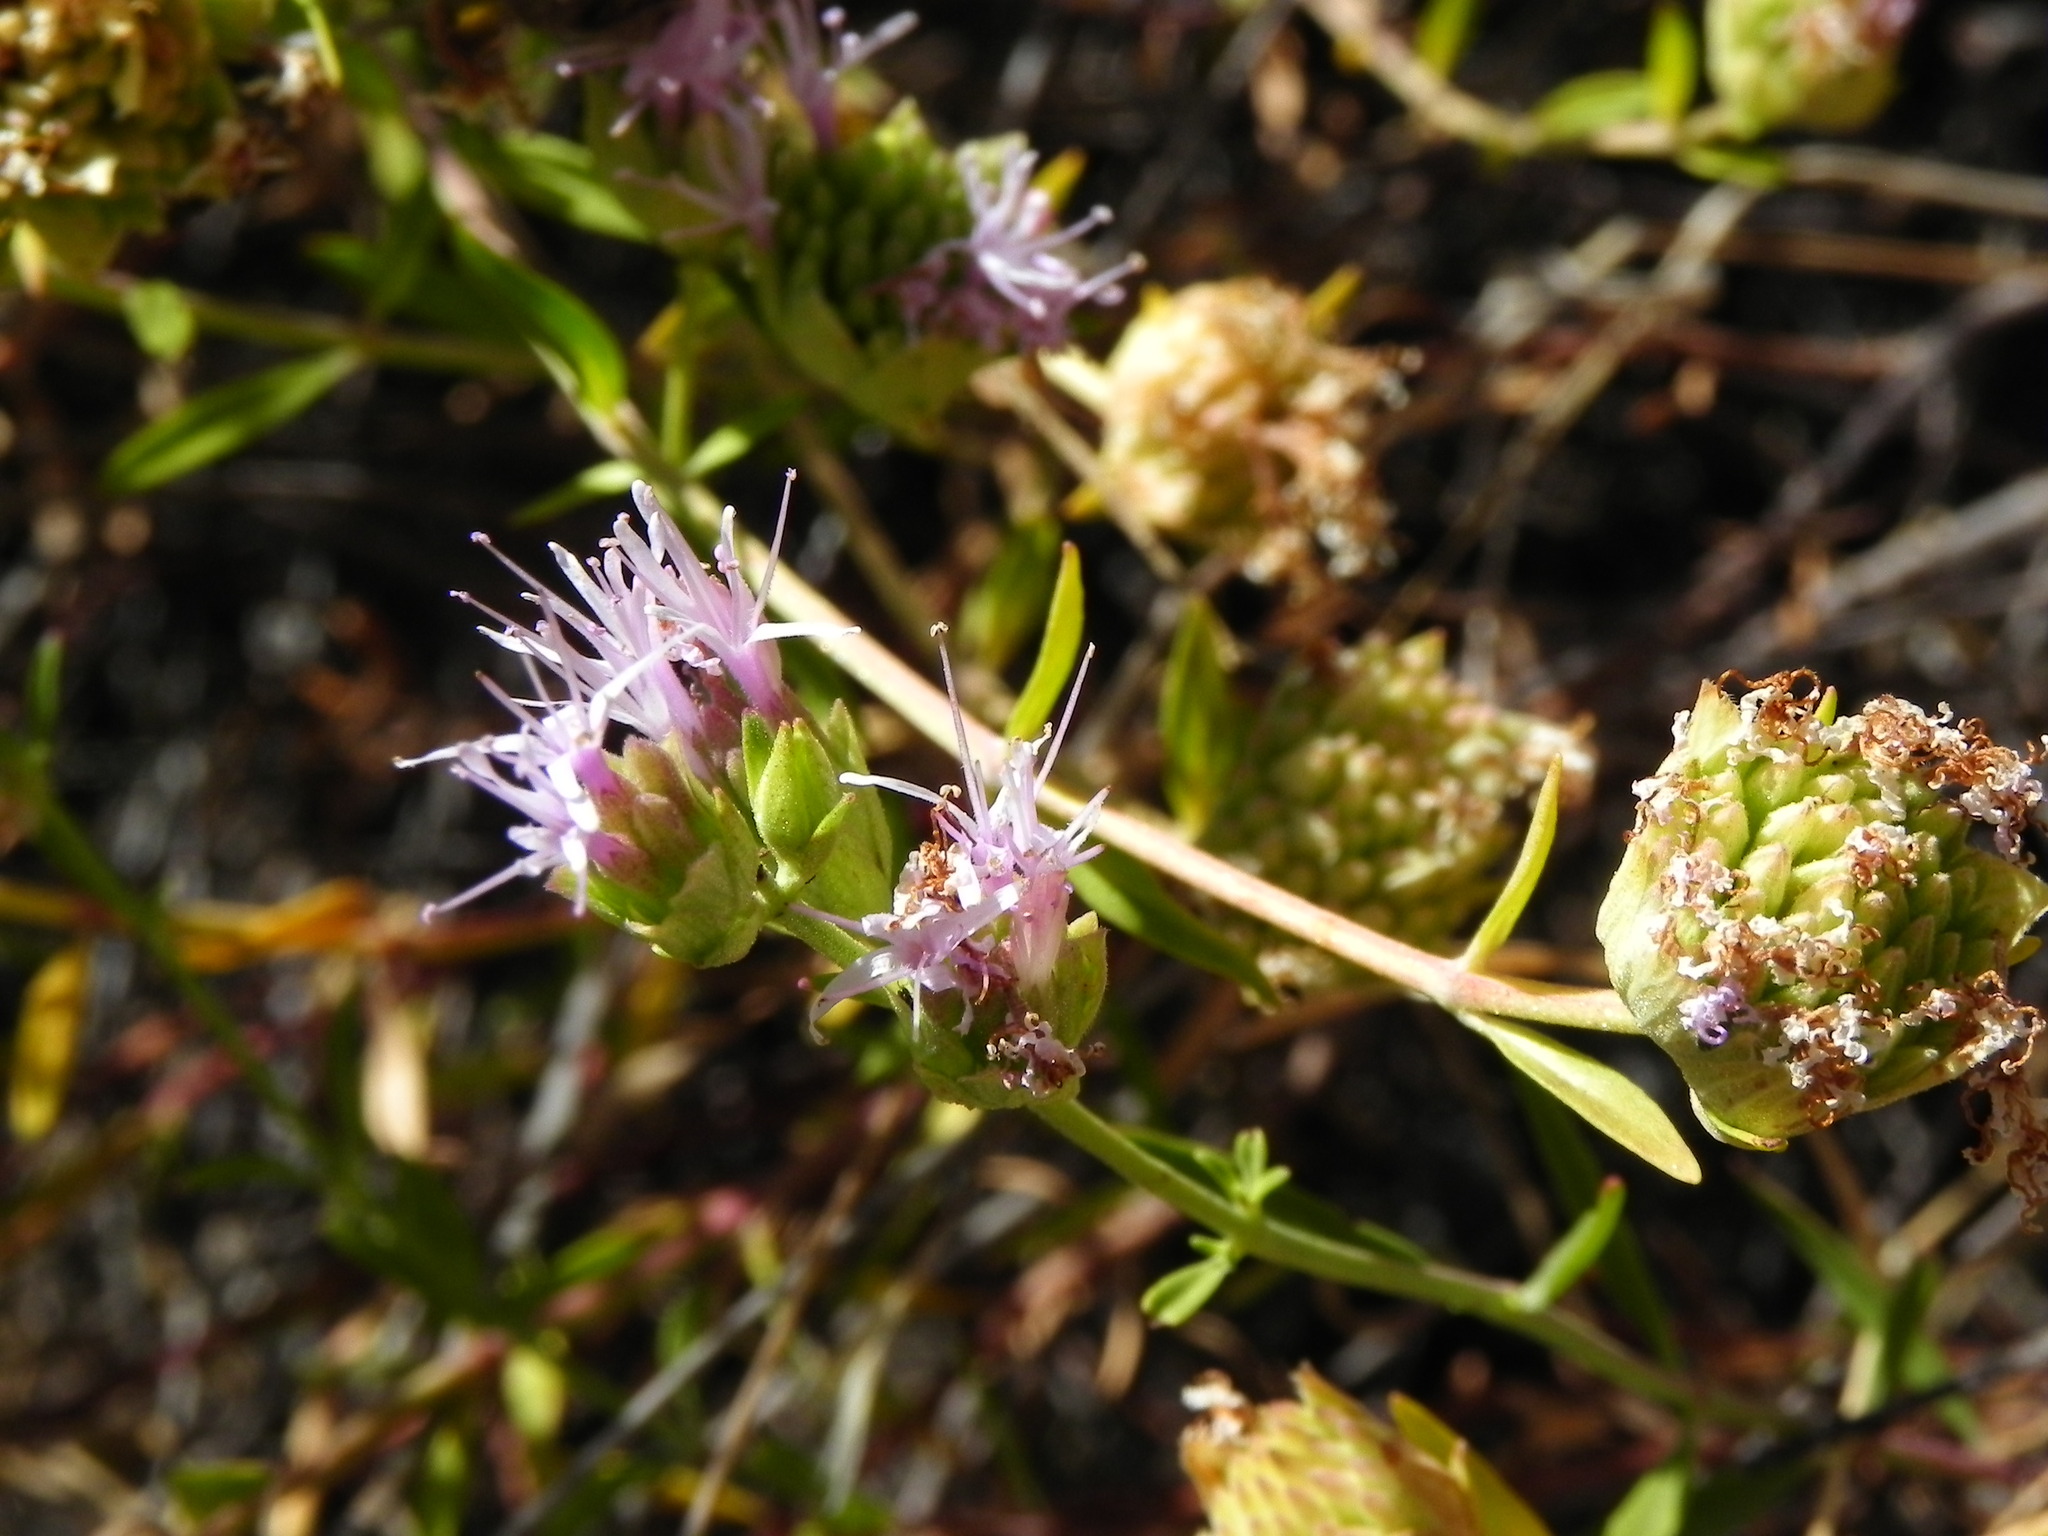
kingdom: Plantae
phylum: Tracheophyta
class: Magnoliopsida
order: Lamiales
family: Lamiaceae
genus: Monardella
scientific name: Monardella viminea
